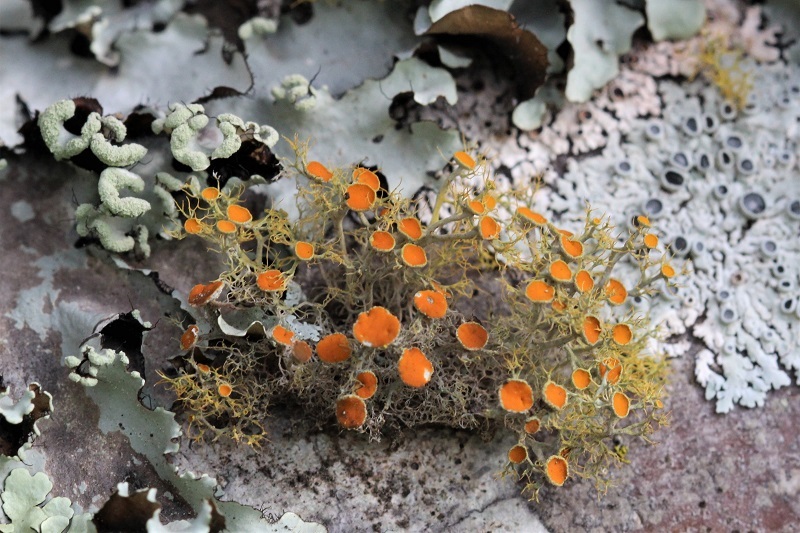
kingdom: Fungi
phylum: Ascomycota
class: Lecanoromycetes
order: Teloschistales
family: Teloschistaceae
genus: Teloschistes
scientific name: Teloschistes exilis
